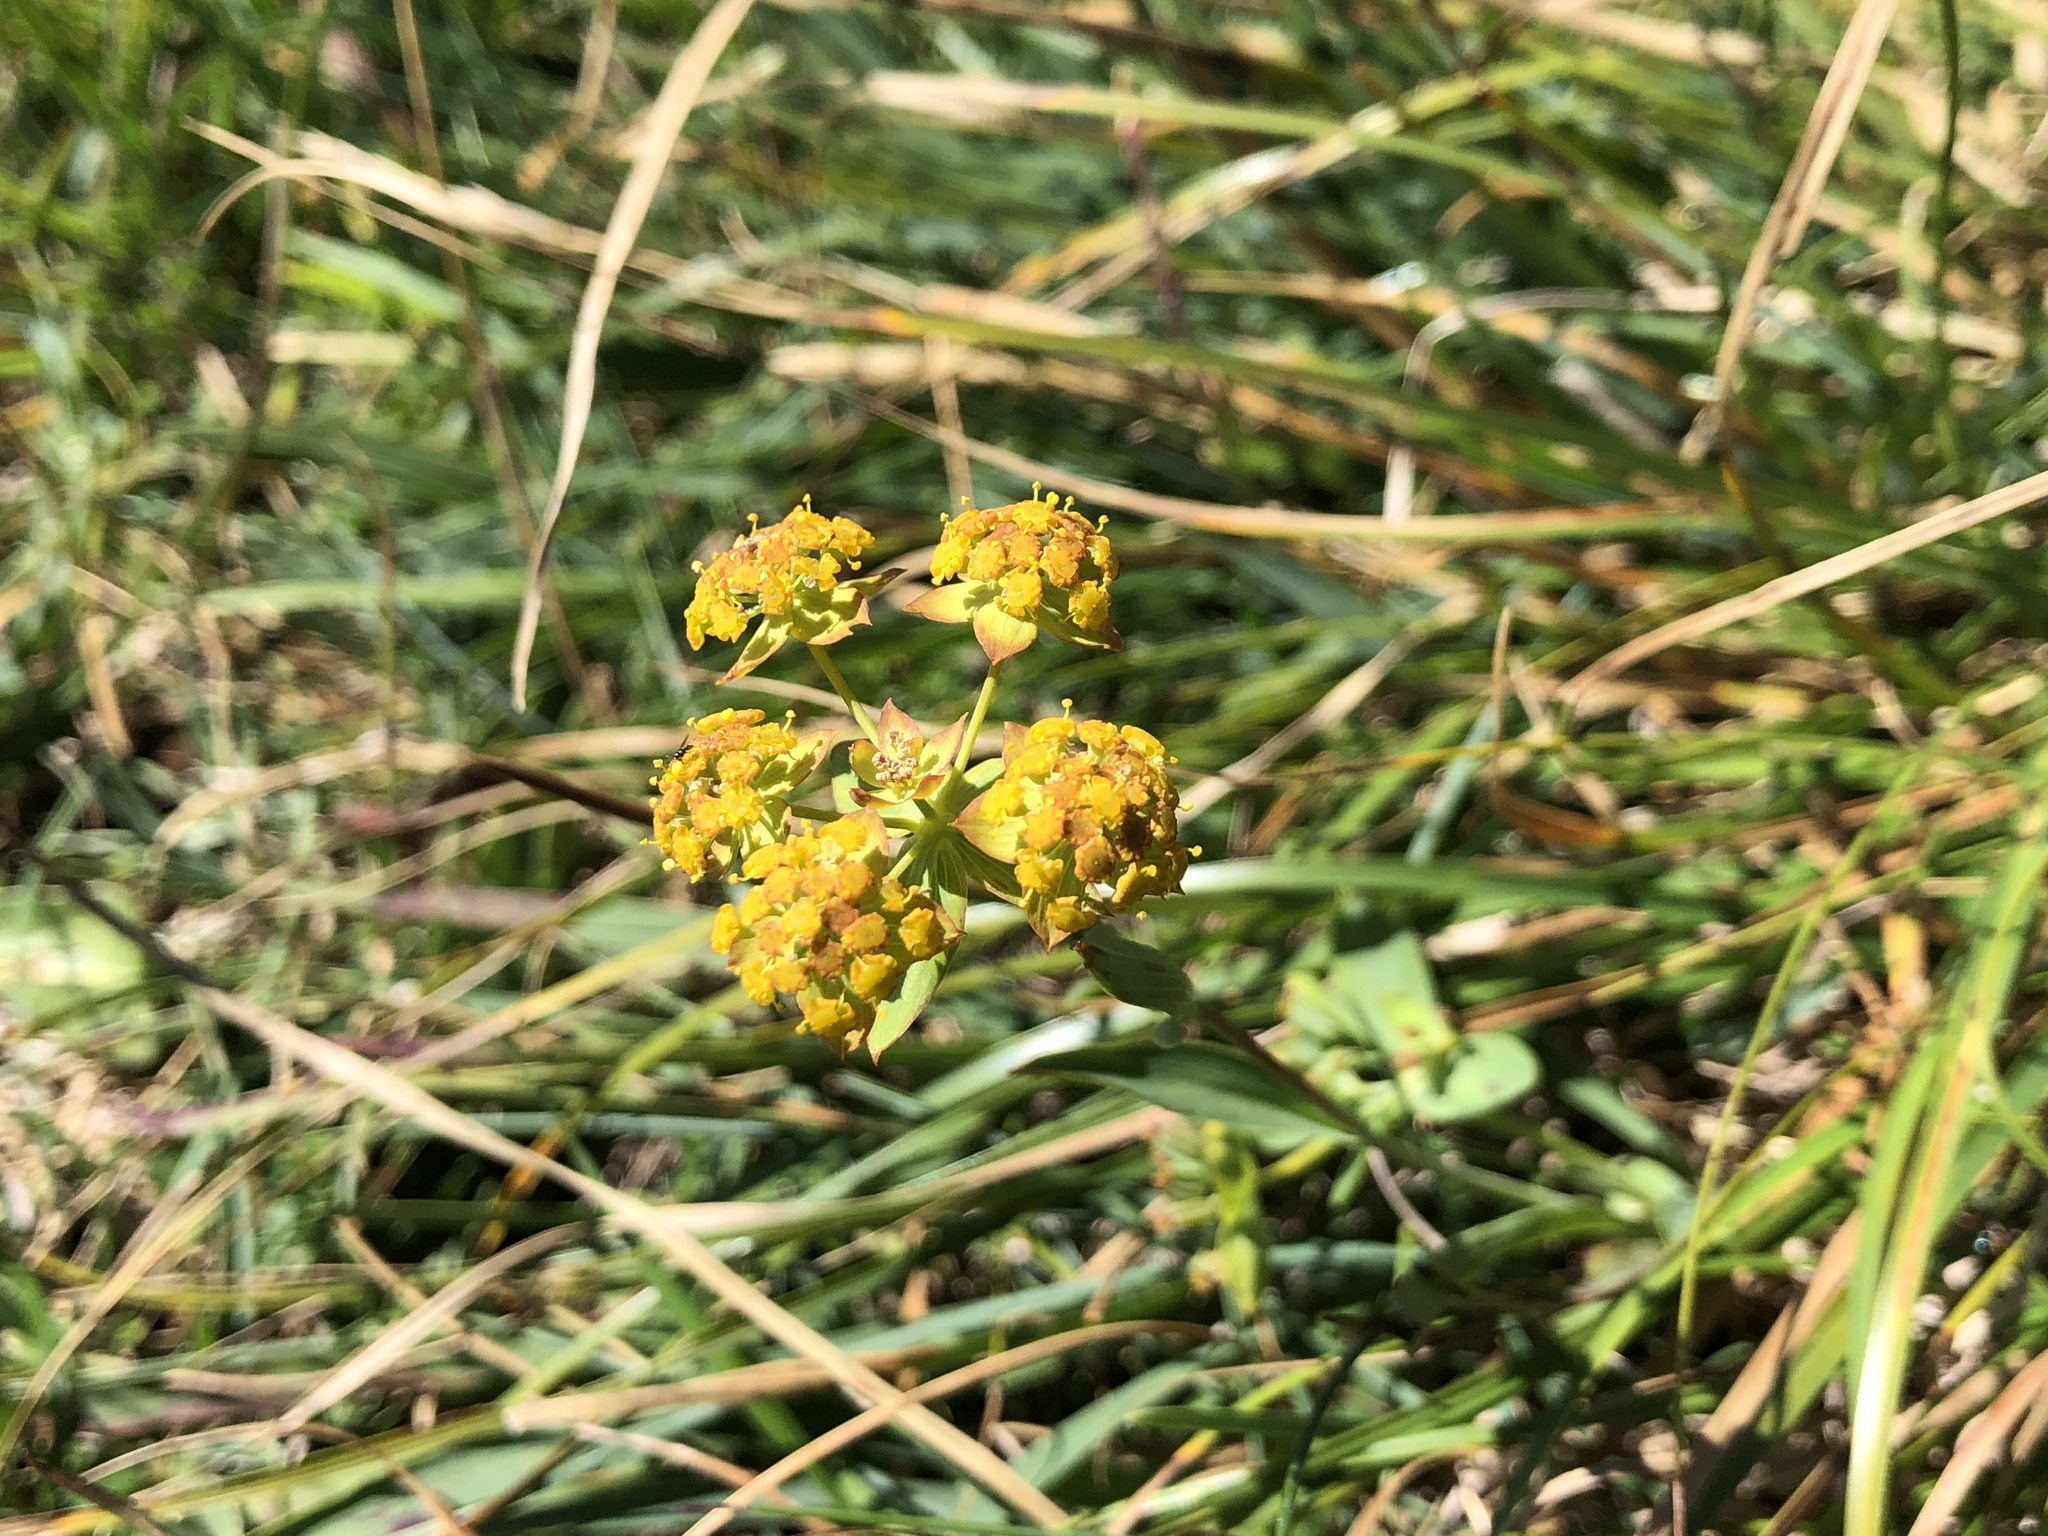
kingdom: Plantae
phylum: Tracheophyta
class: Magnoliopsida
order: Apiales
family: Apiaceae
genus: Bupleurum
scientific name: Bupleurum ranunculoides
